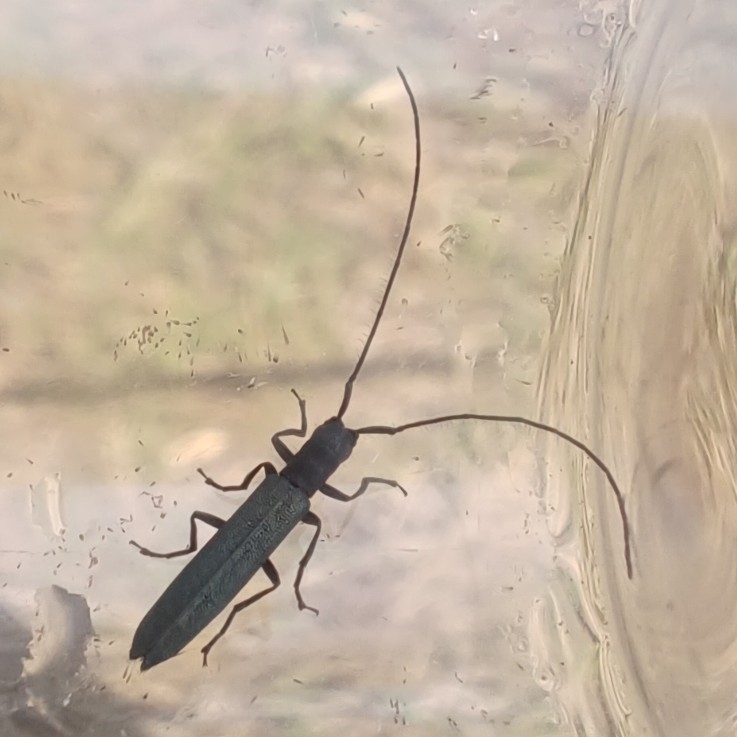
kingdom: Animalia
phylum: Arthropoda
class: Insecta
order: Coleoptera
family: Cerambycidae
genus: Theophilea
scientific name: Theophilea subcylindricollis
